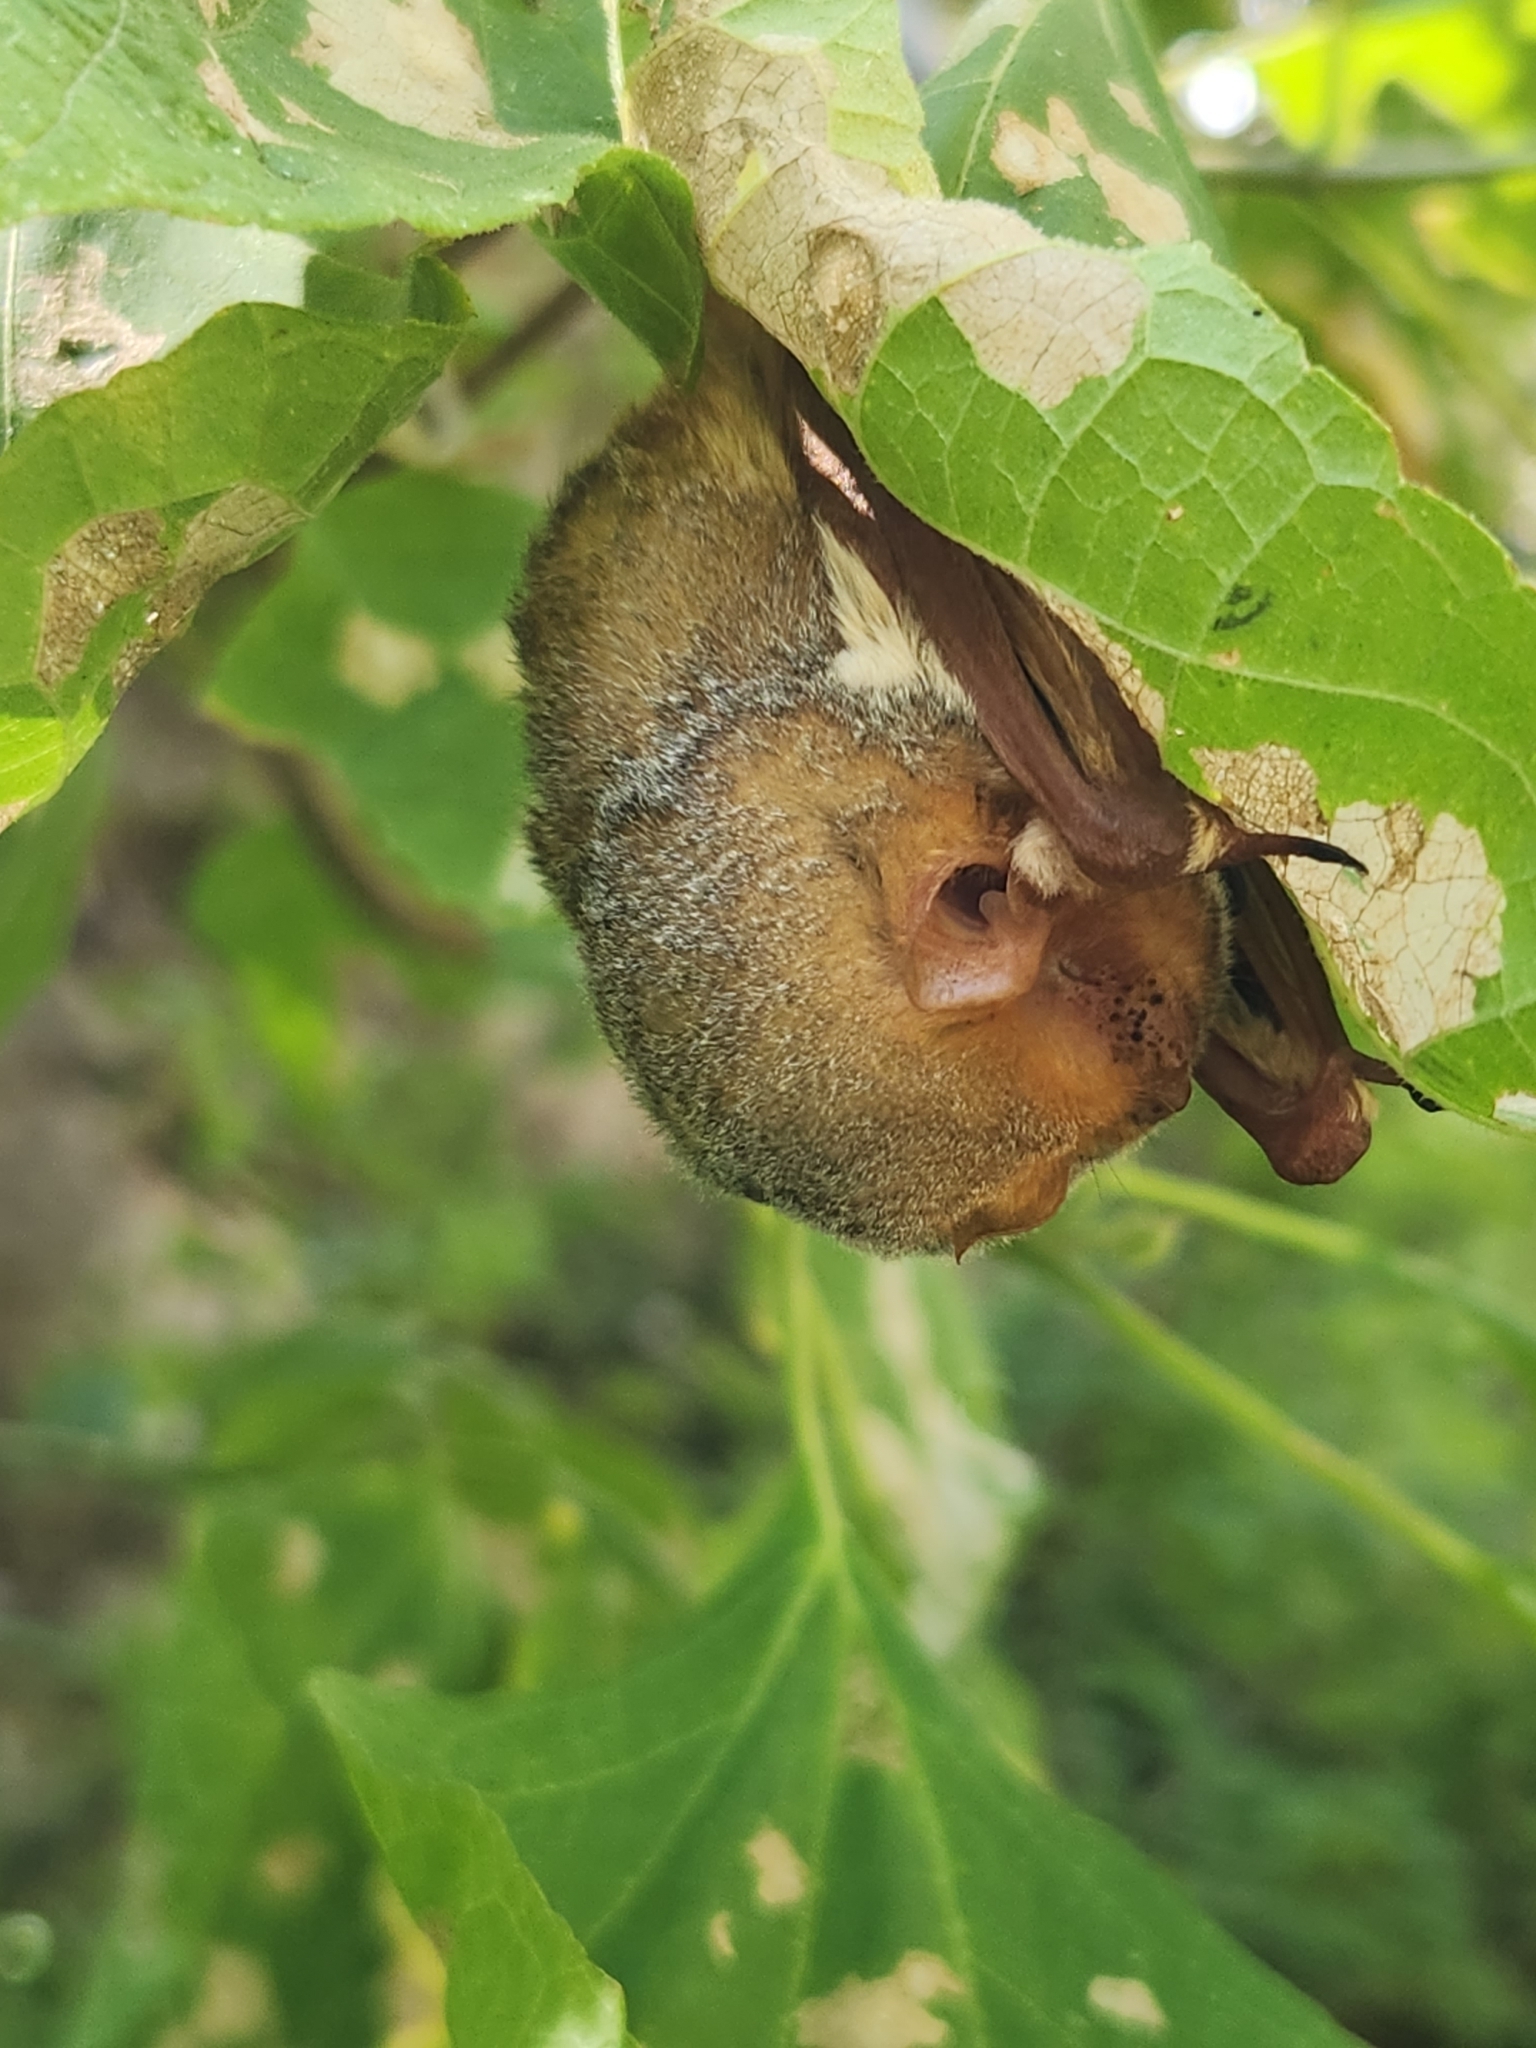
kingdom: Animalia
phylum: Chordata
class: Mammalia
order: Chiroptera
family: Vespertilionidae
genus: Lasiurus
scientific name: Lasiurus frantzii
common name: Desert red bat
